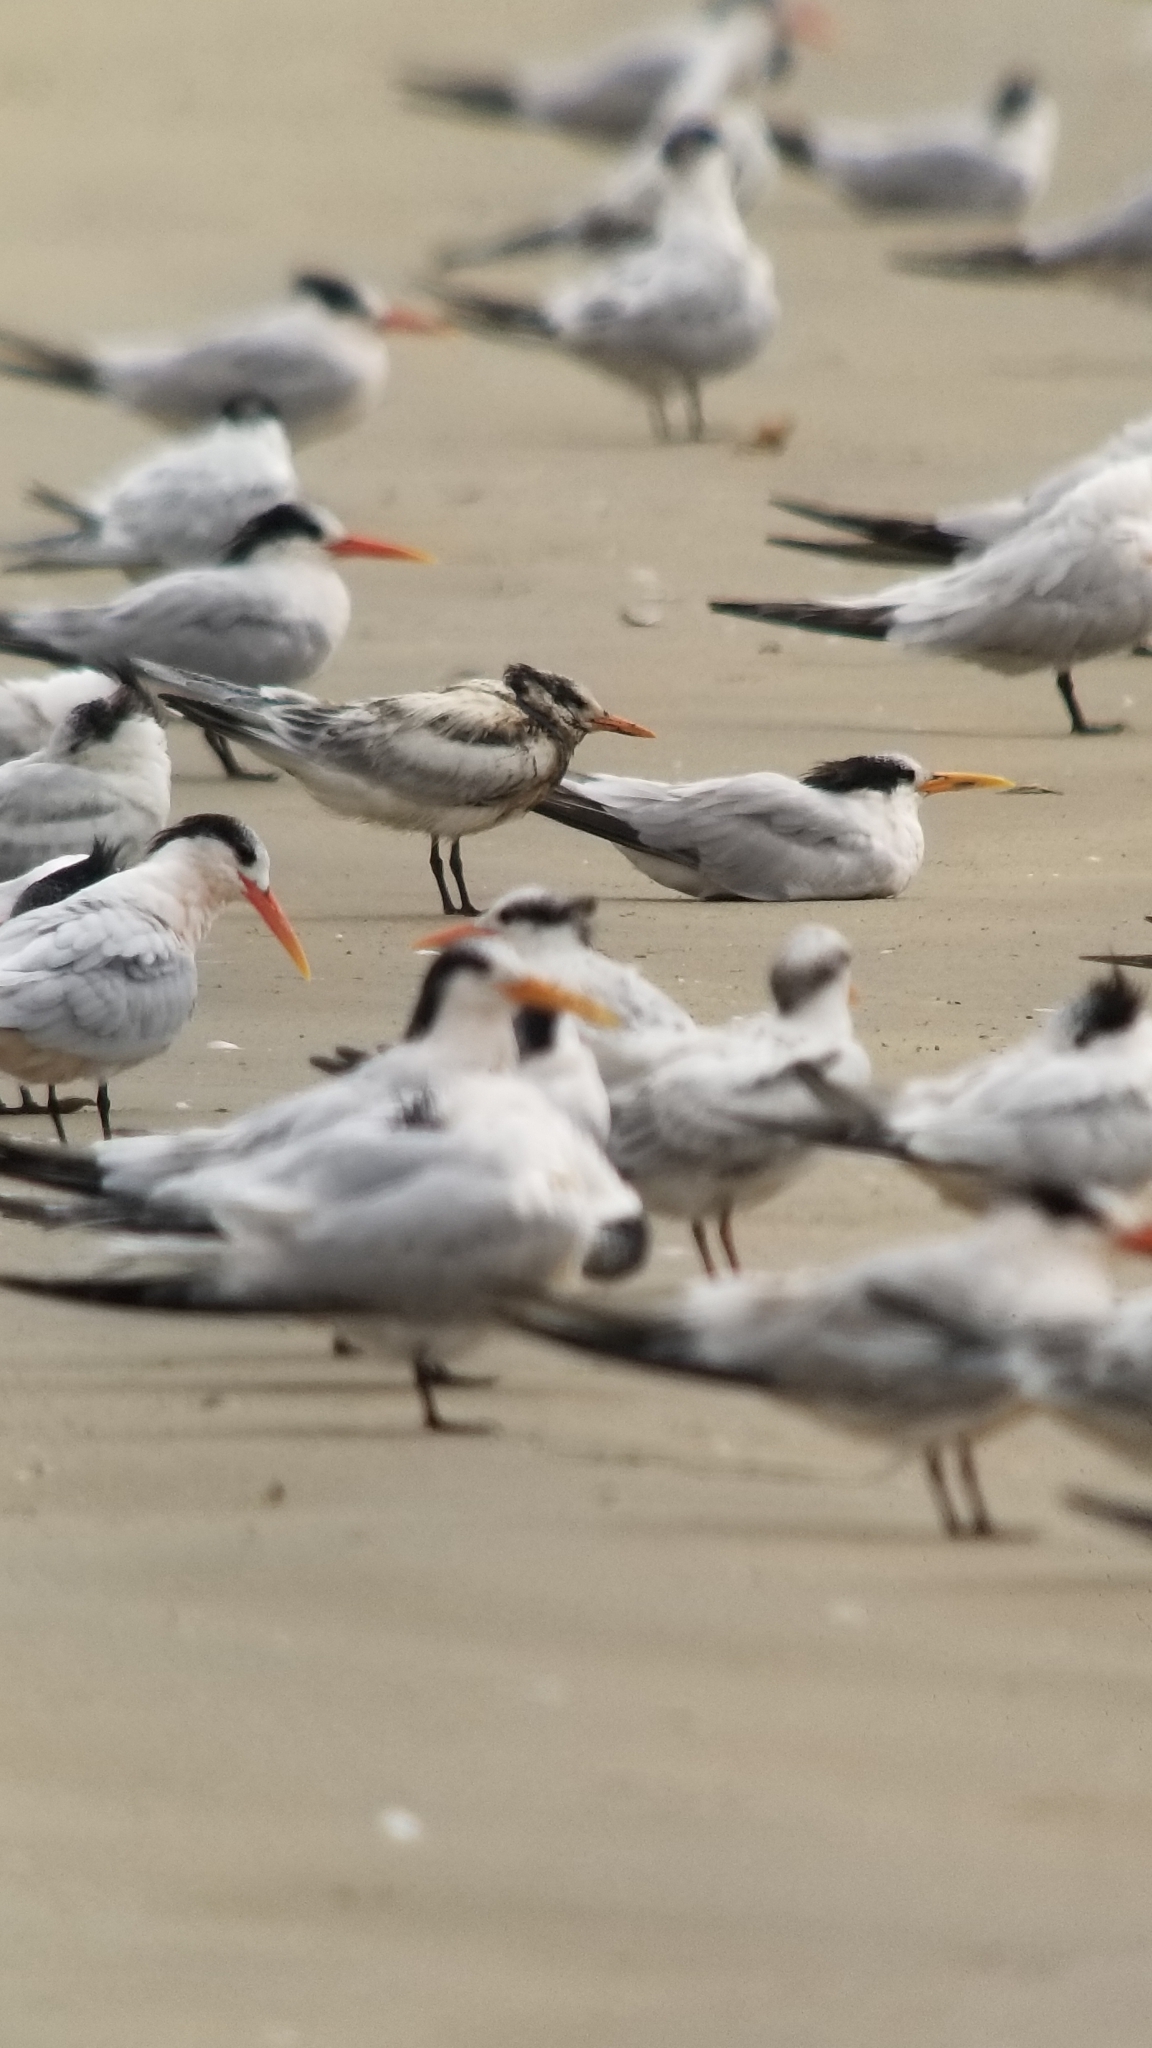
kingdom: Animalia
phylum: Chordata
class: Aves
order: Charadriiformes
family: Laridae
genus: Thalasseus
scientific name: Thalasseus maximus
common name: Royal tern
